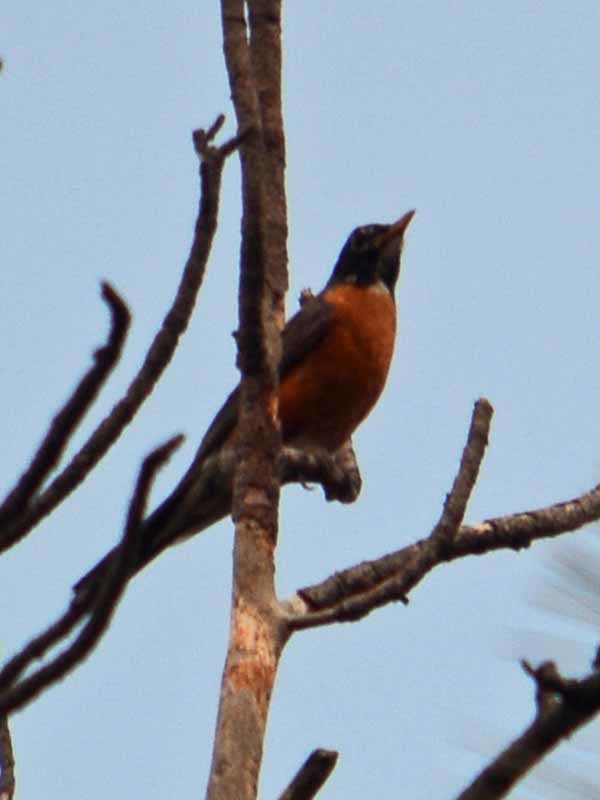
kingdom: Animalia
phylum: Chordata
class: Aves
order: Passeriformes
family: Turdidae
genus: Turdus
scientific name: Turdus migratorius
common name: American robin
